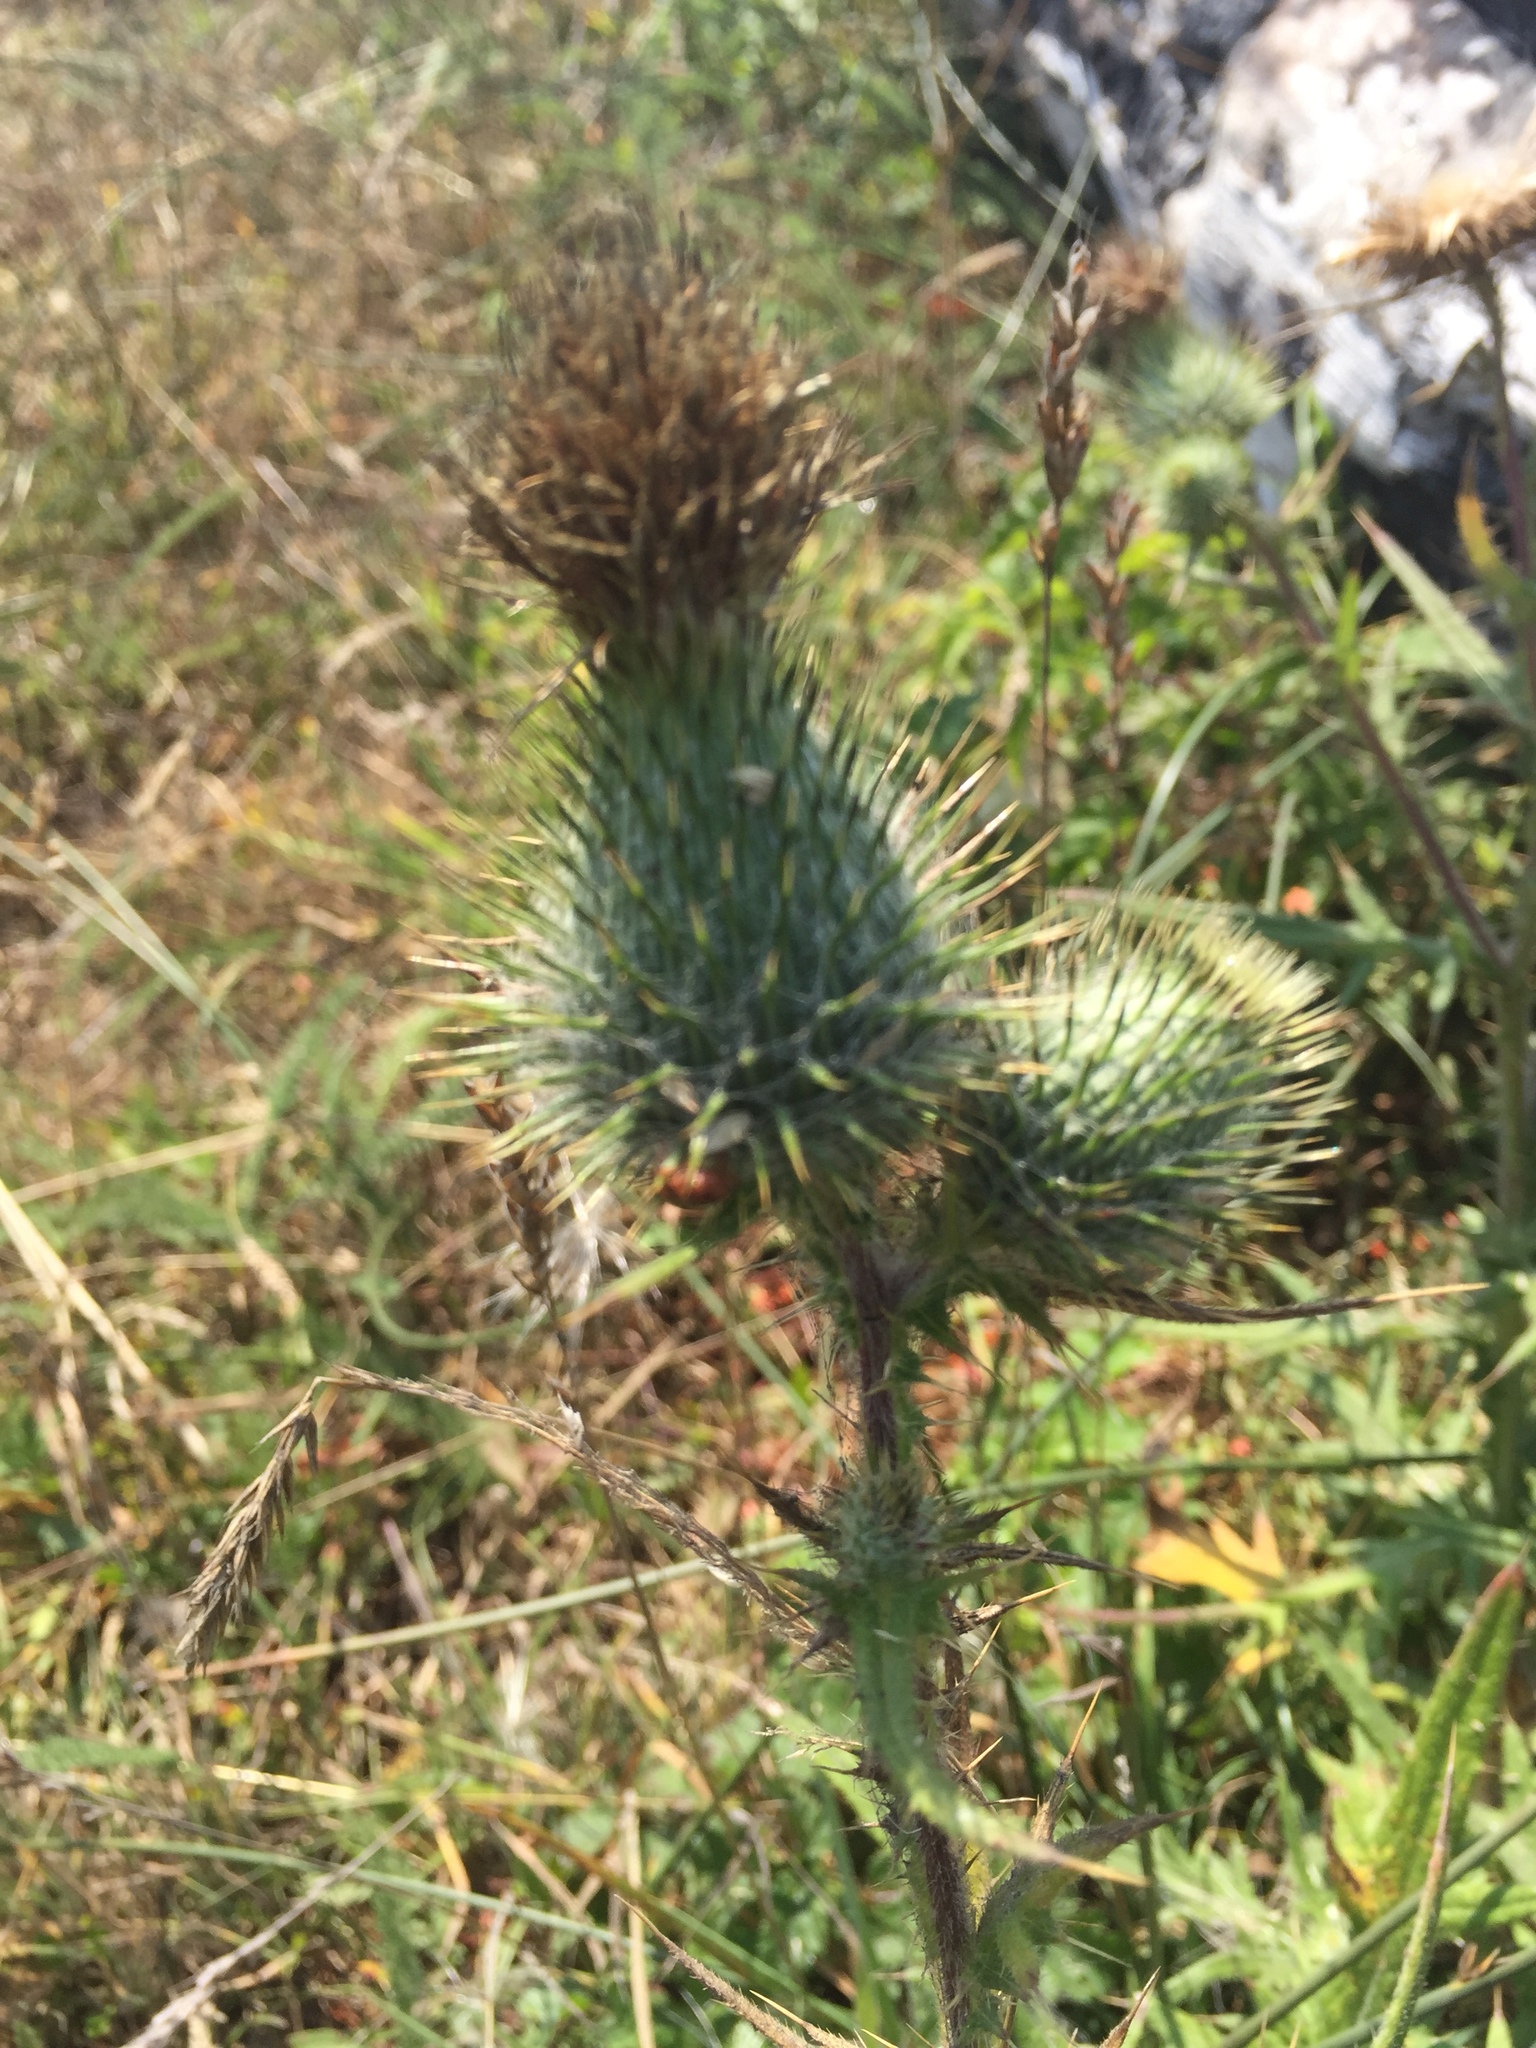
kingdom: Plantae
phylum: Tracheophyta
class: Magnoliopsida
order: Asterales
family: Asteraceae
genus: Cirsium
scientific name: Cirsium vulgare
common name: Bull thistle
